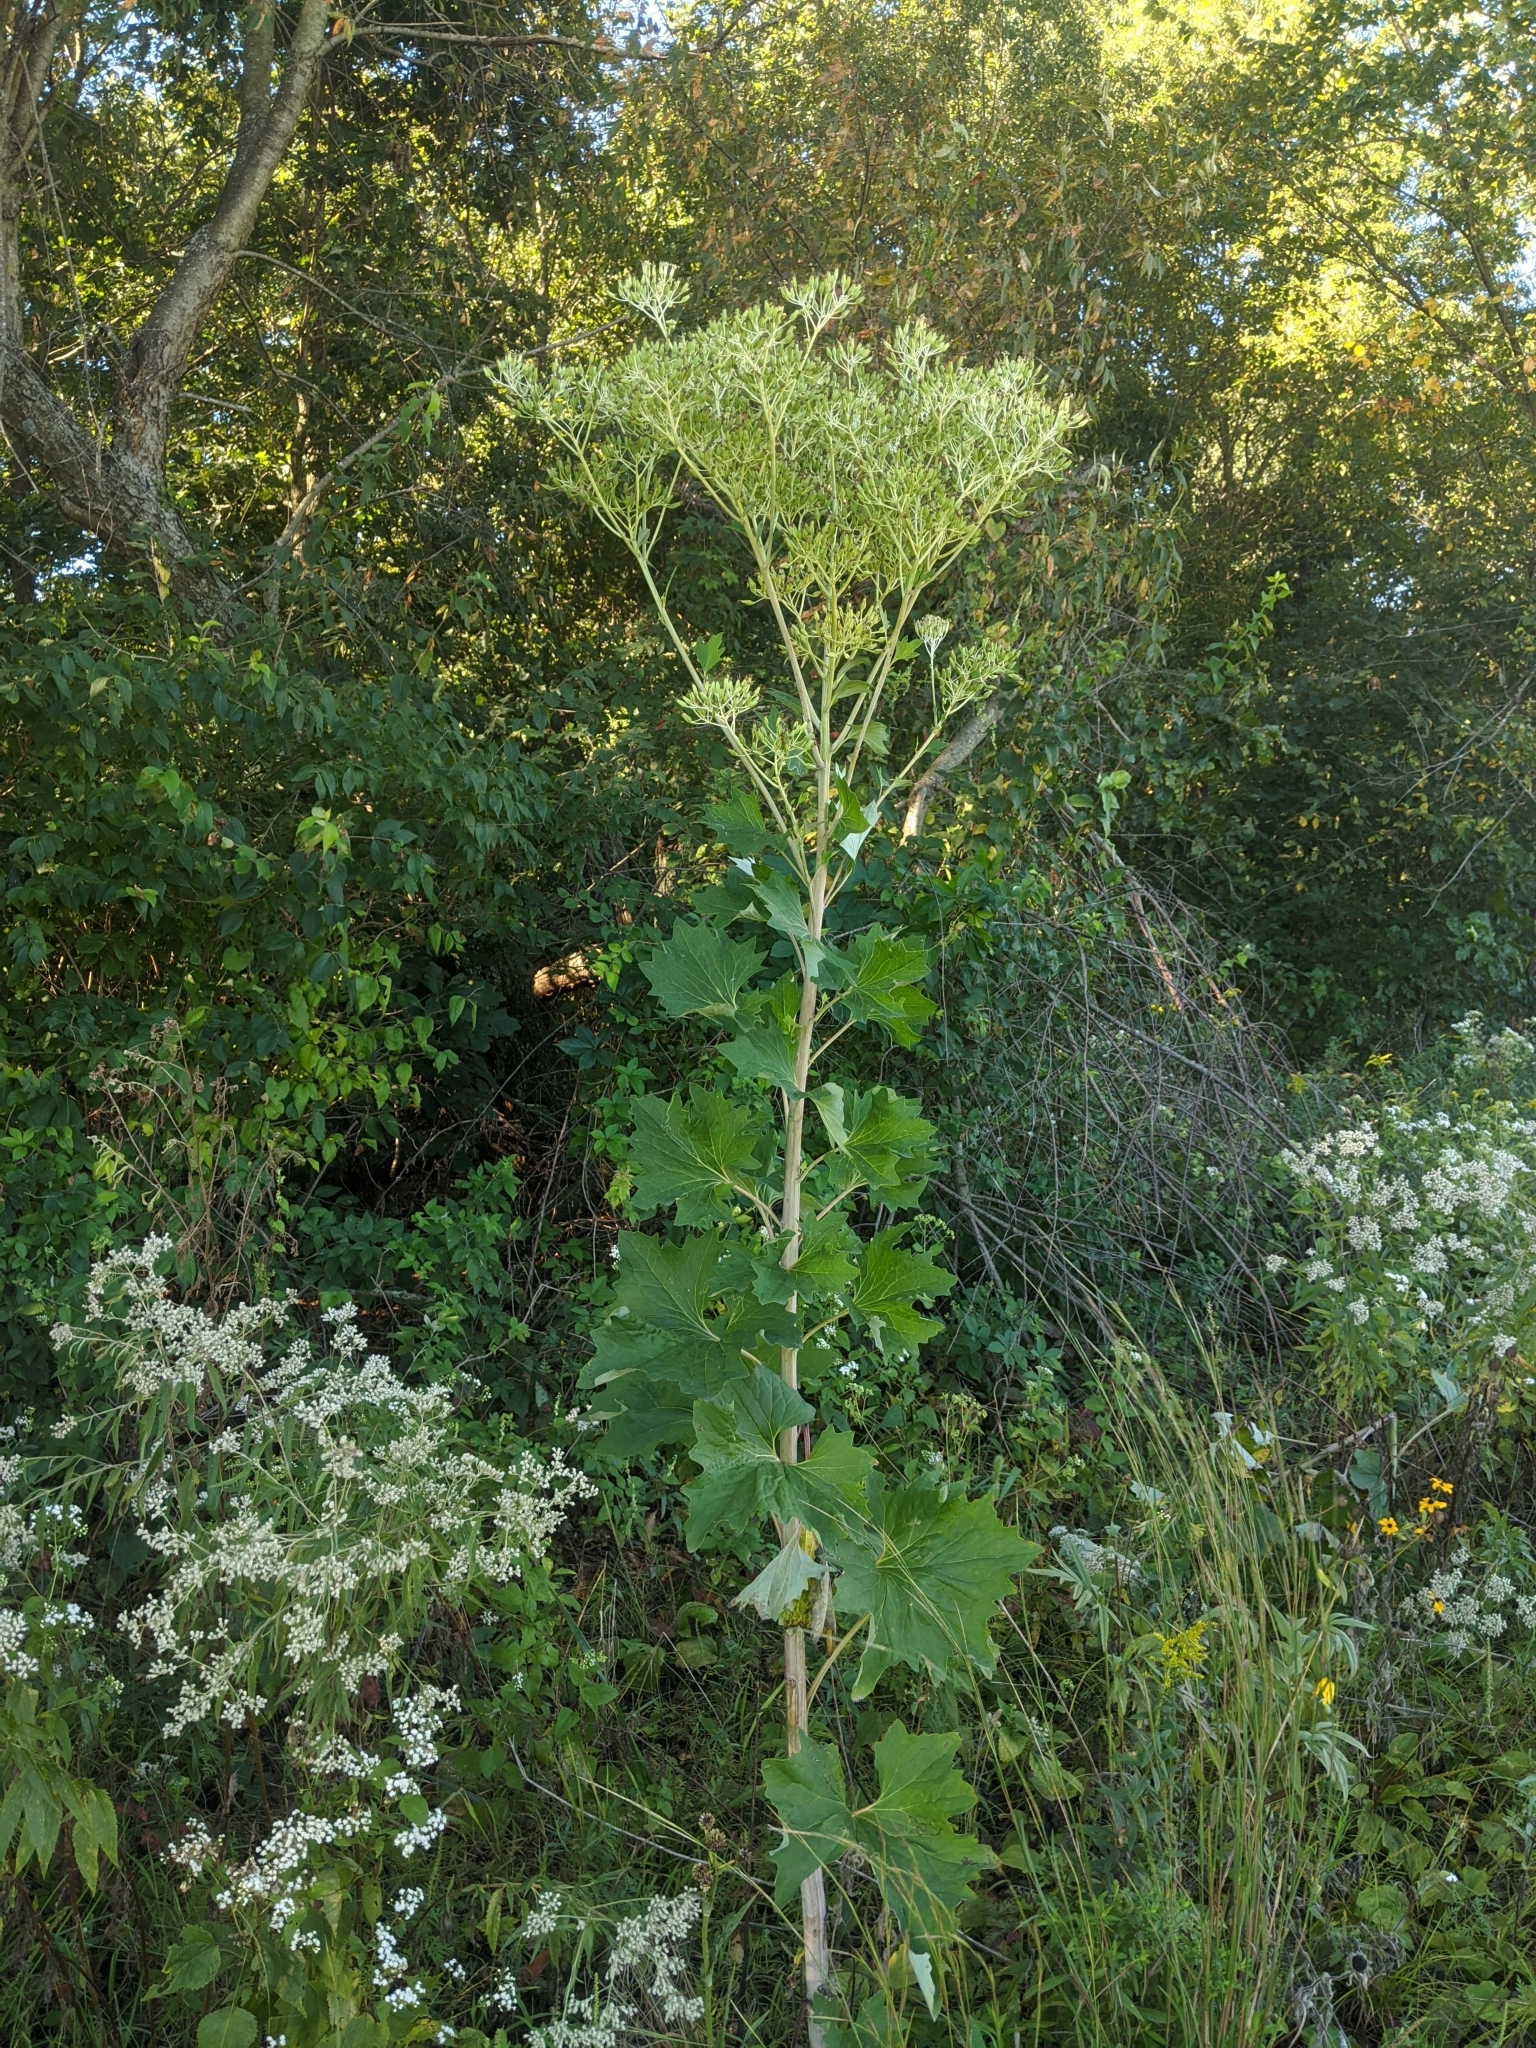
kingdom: Plantae
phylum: Tracheophyta
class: Magnoliopsida
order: Asterales
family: Asteraceae
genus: Arnoglossum
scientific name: Arnoglossum atriplicifolium
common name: Pale indian-plantain
